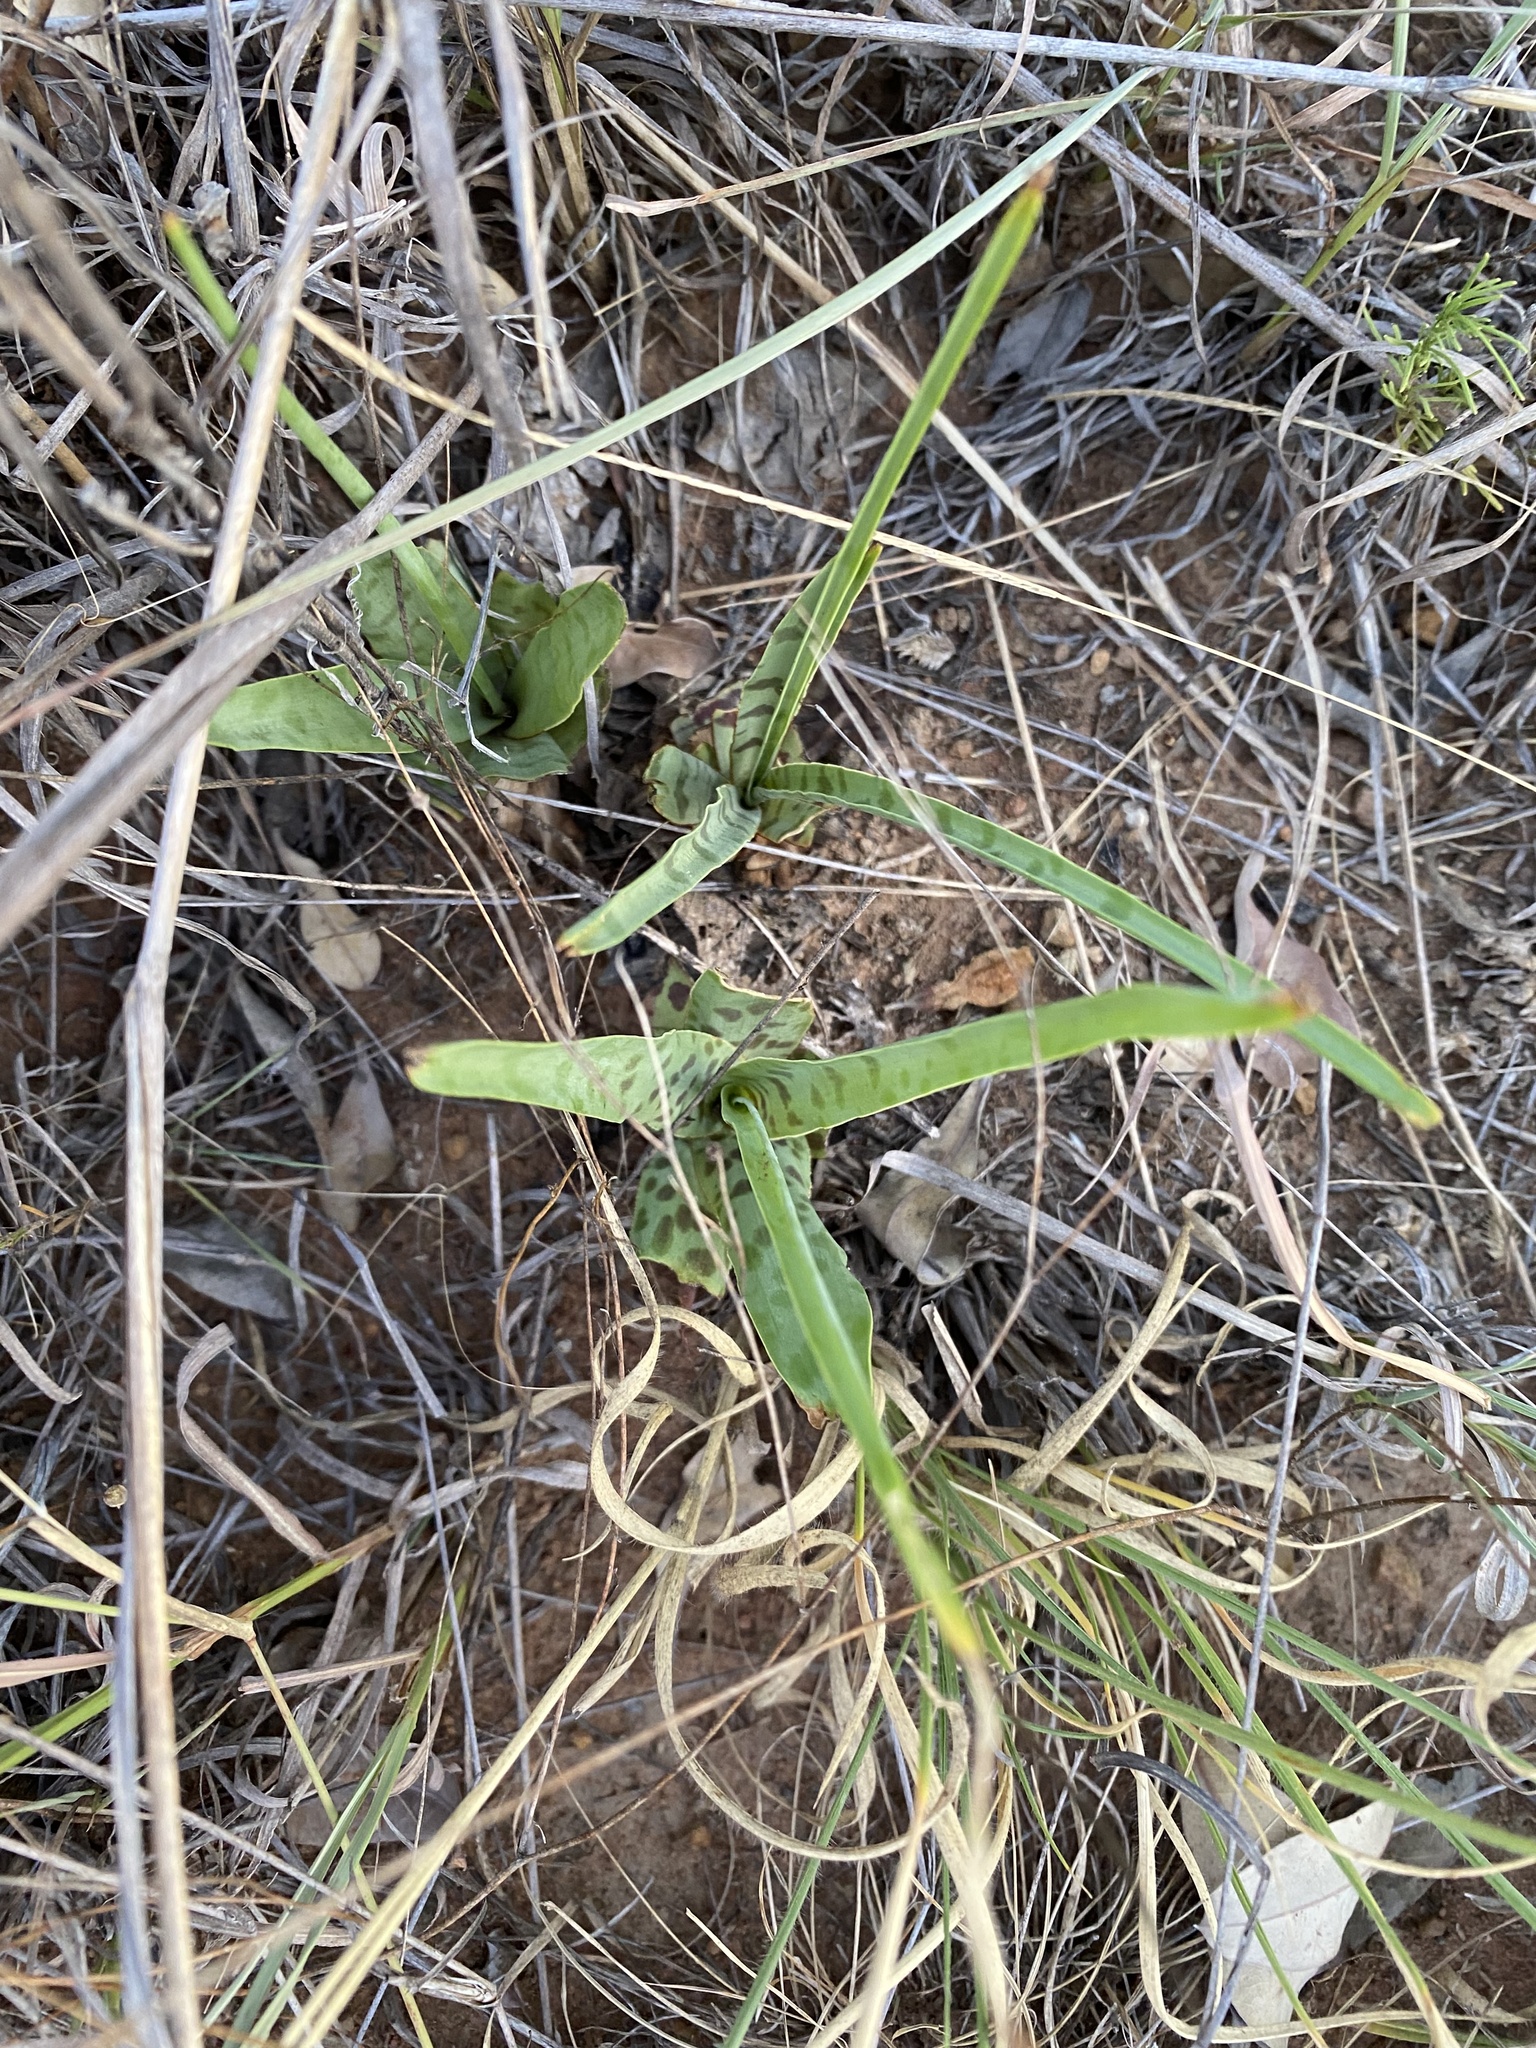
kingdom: Plantae
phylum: Tracheophyta
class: Liliopsida
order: Asparagales
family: Asparagaceae
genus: Ledebouria
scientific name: Ledebouria inquinata
